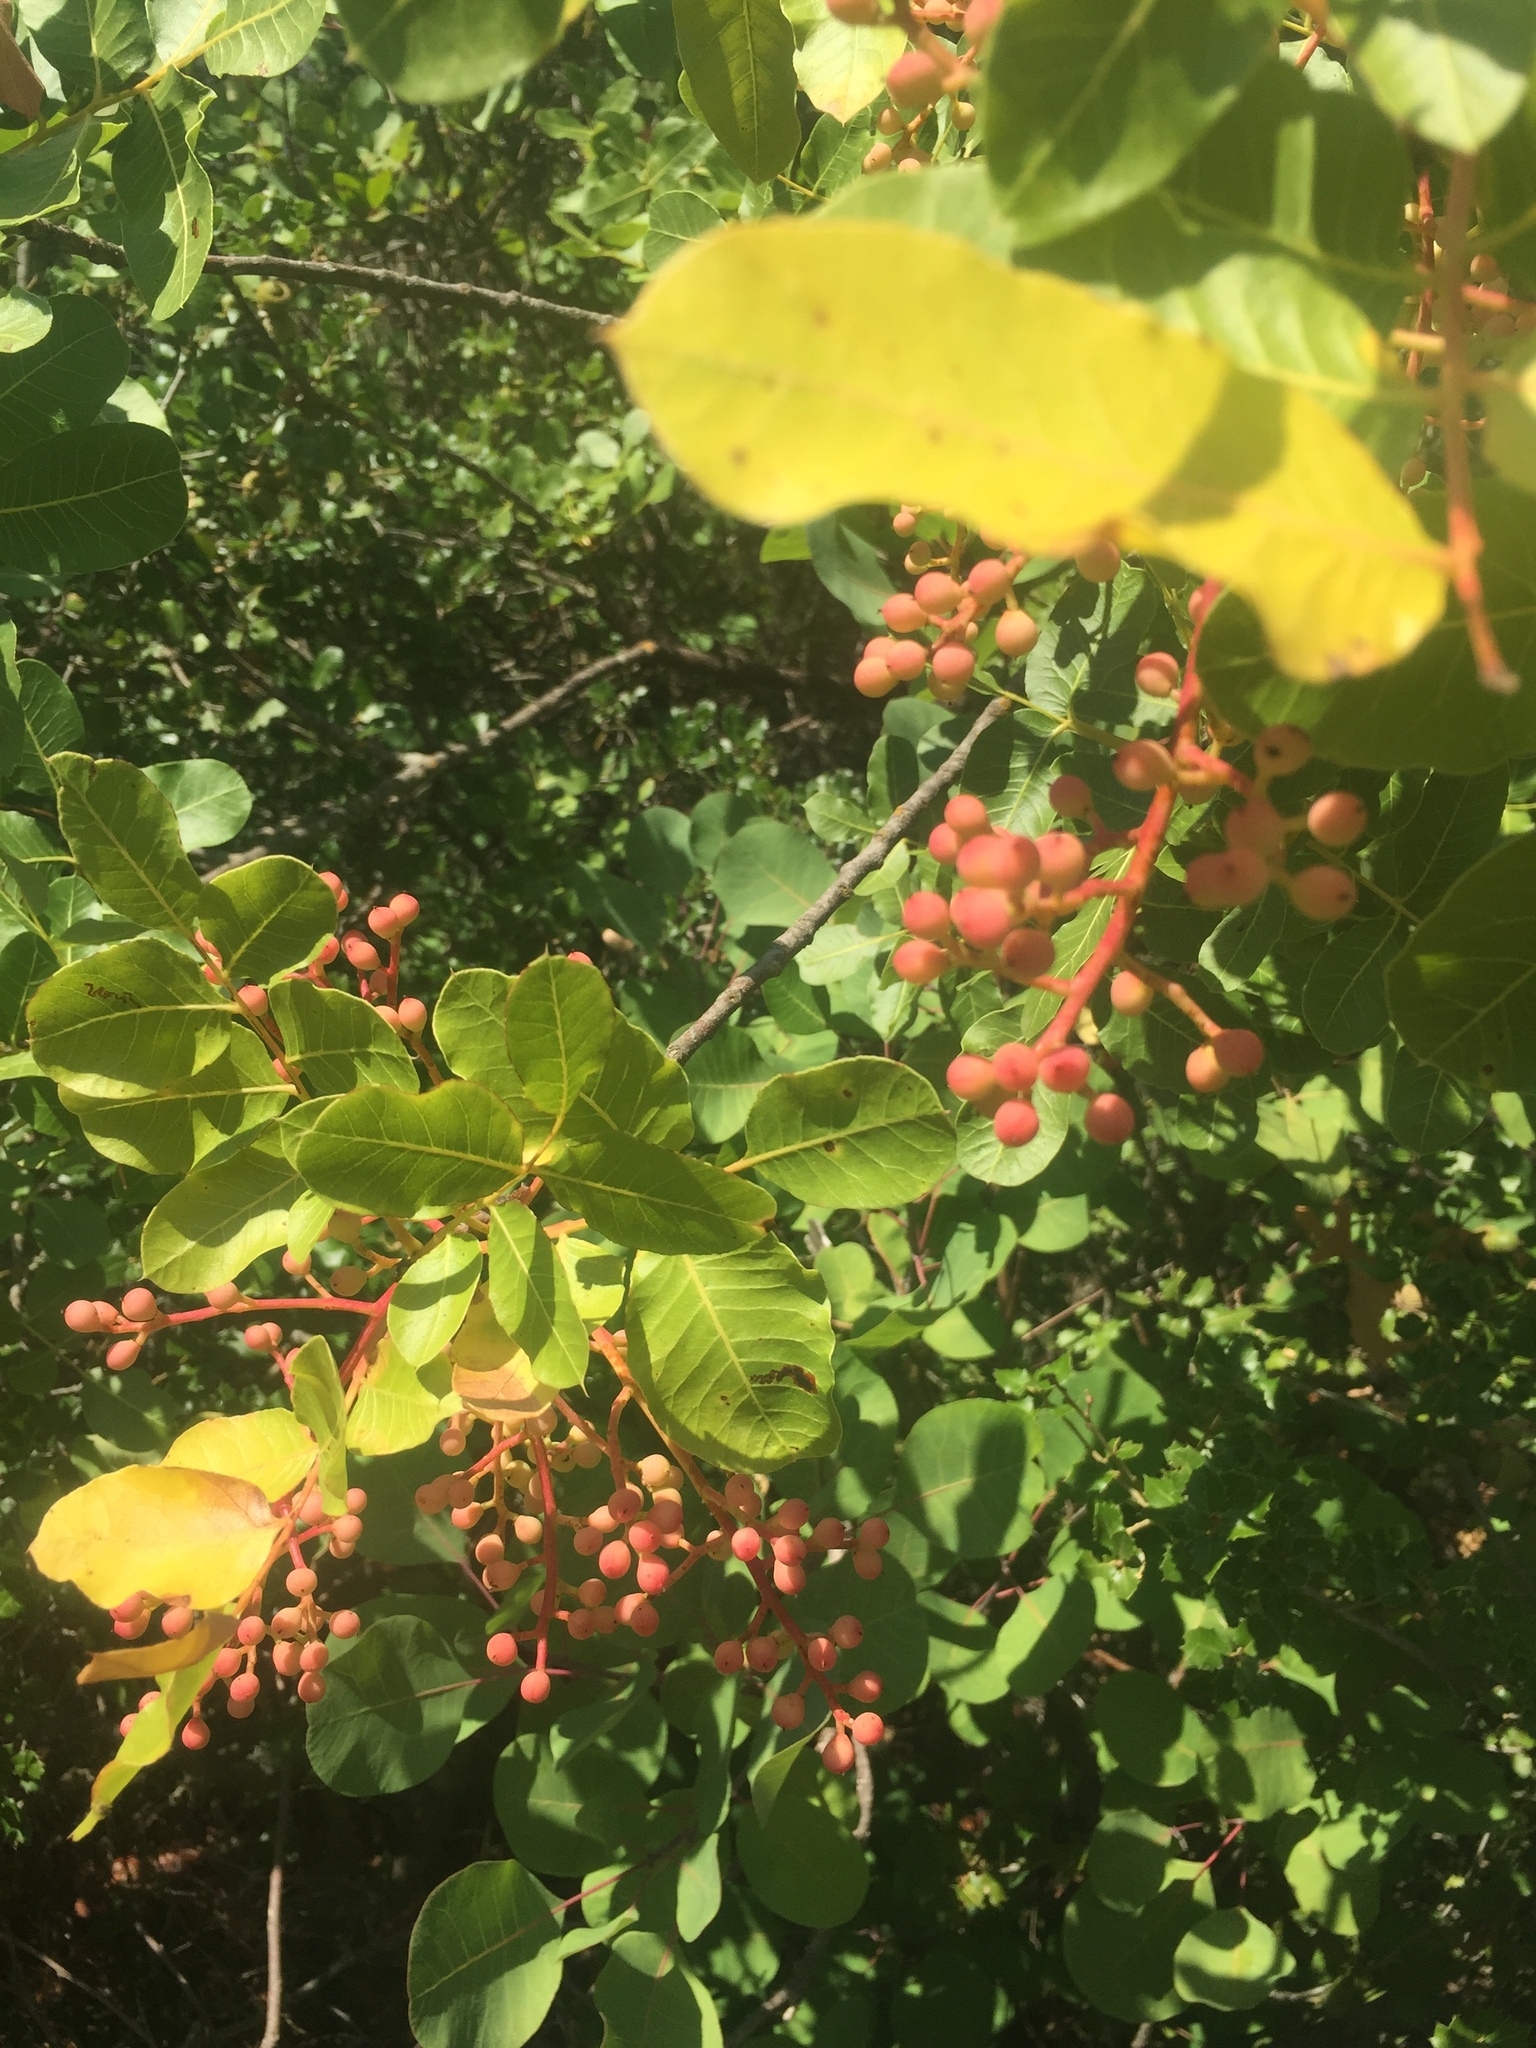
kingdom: Plantae
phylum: Tracheophyta
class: Magnoliopsida
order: Sapindales
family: Anacardiaceae
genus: Pistacia
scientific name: Pistacia terebinthus
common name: Terebinth
